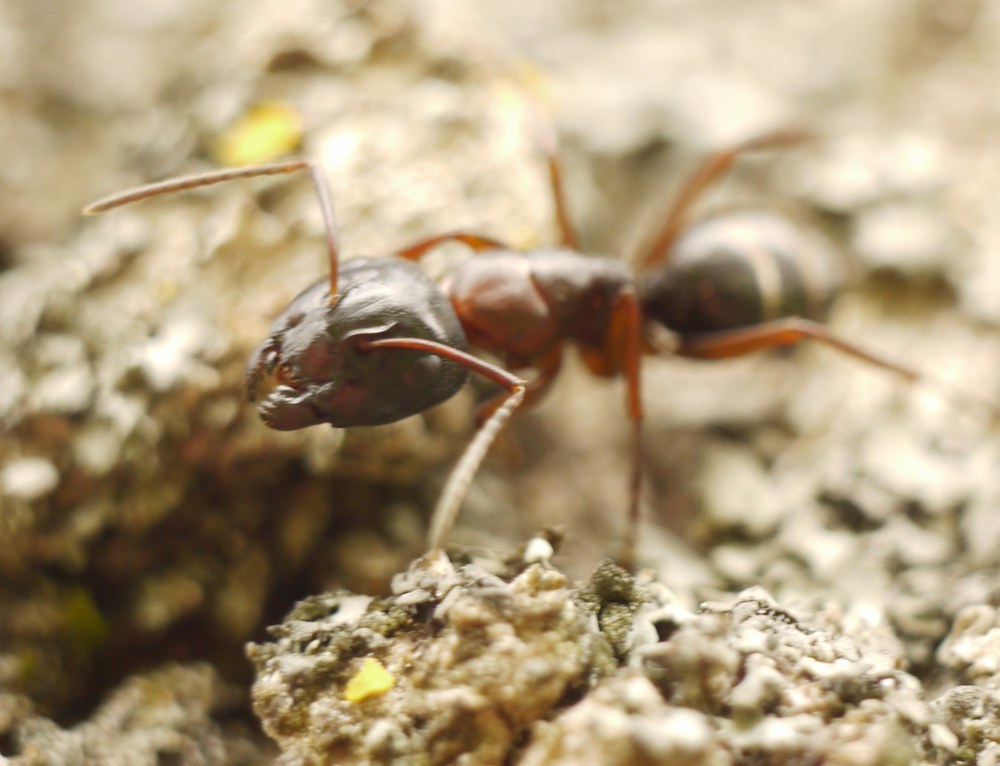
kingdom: Animalia
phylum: Arthropoda
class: Insecta
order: Hymenoptera
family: Formicidae
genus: Camponotus
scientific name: Camponotus fallax
